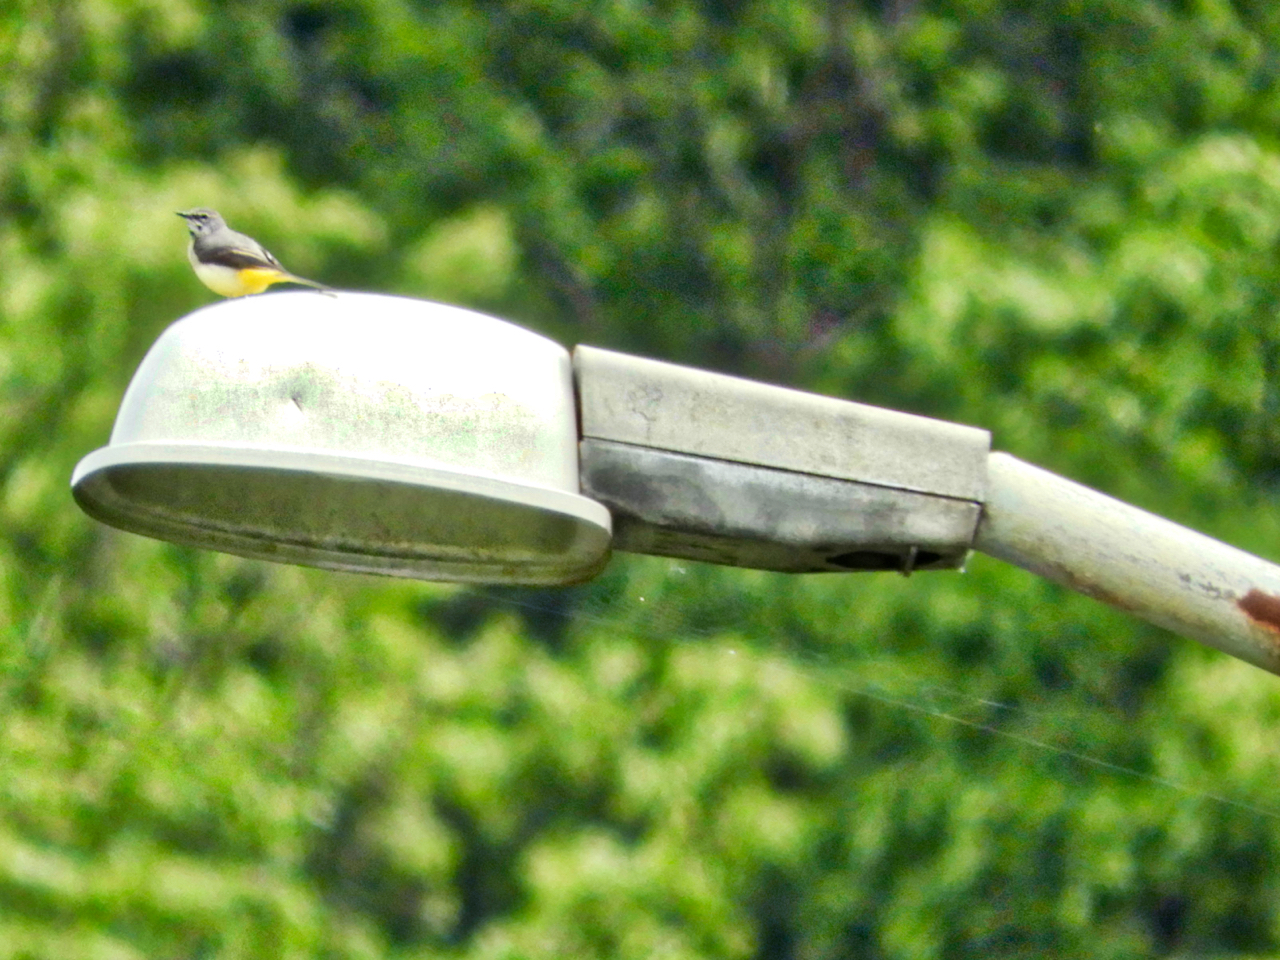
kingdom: Animalia
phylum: Chordata
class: Aves
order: Passeriformes
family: Motacillidae
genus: Motacilla
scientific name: Motacilla cinerea
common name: Grey wagtail
